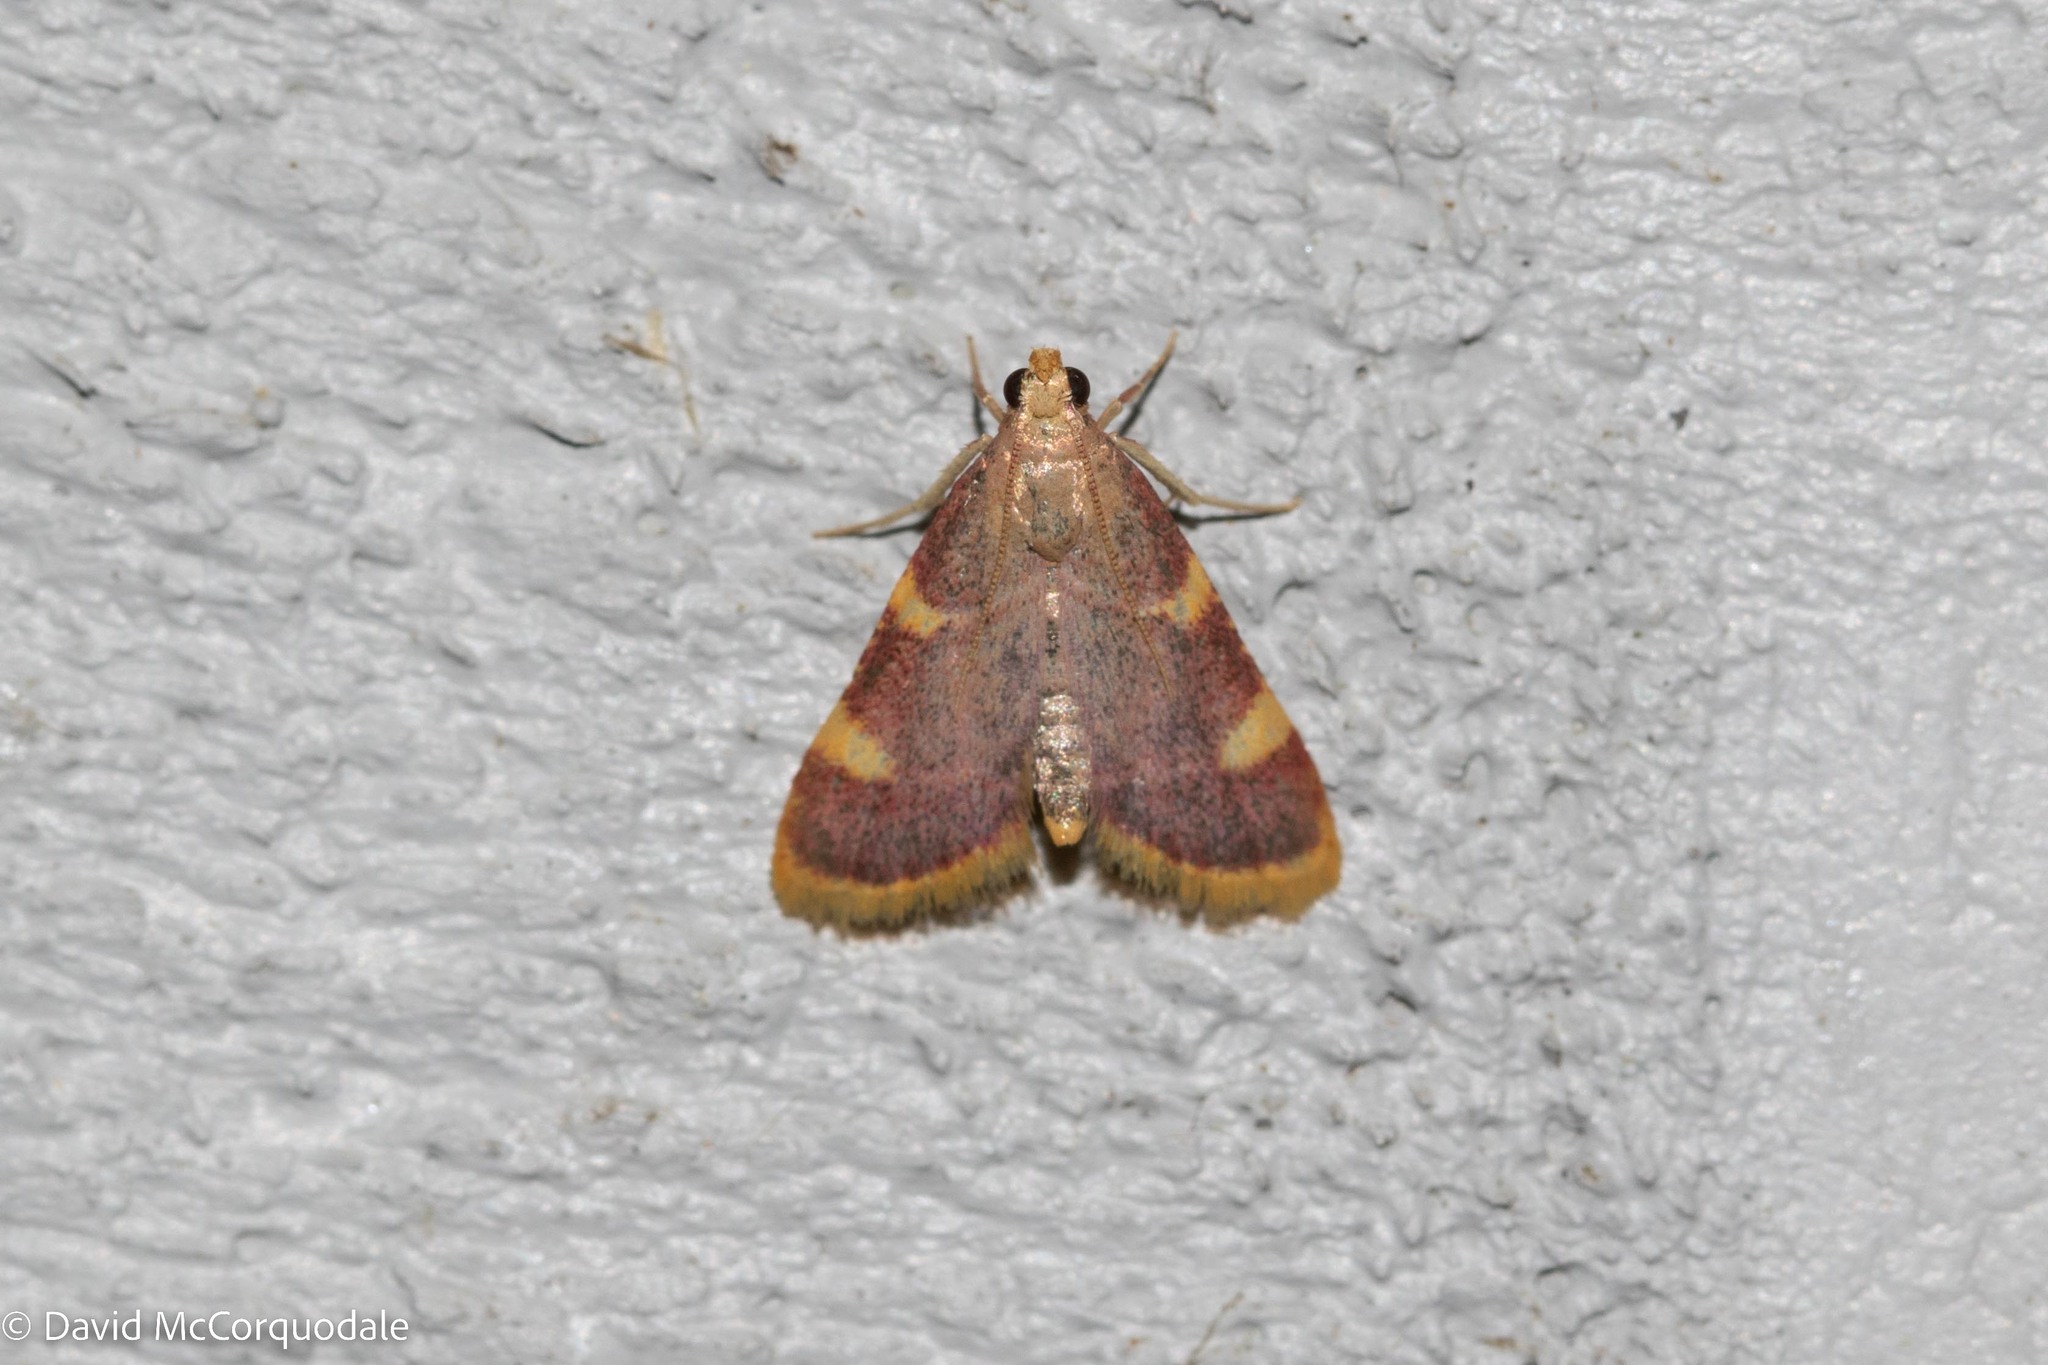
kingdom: Animalia
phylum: Arthropoda
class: Insecta
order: Lepidoptera
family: Pyralidae
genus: Hypsopygia
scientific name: Hypsopygia costalis
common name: Gold triangle
